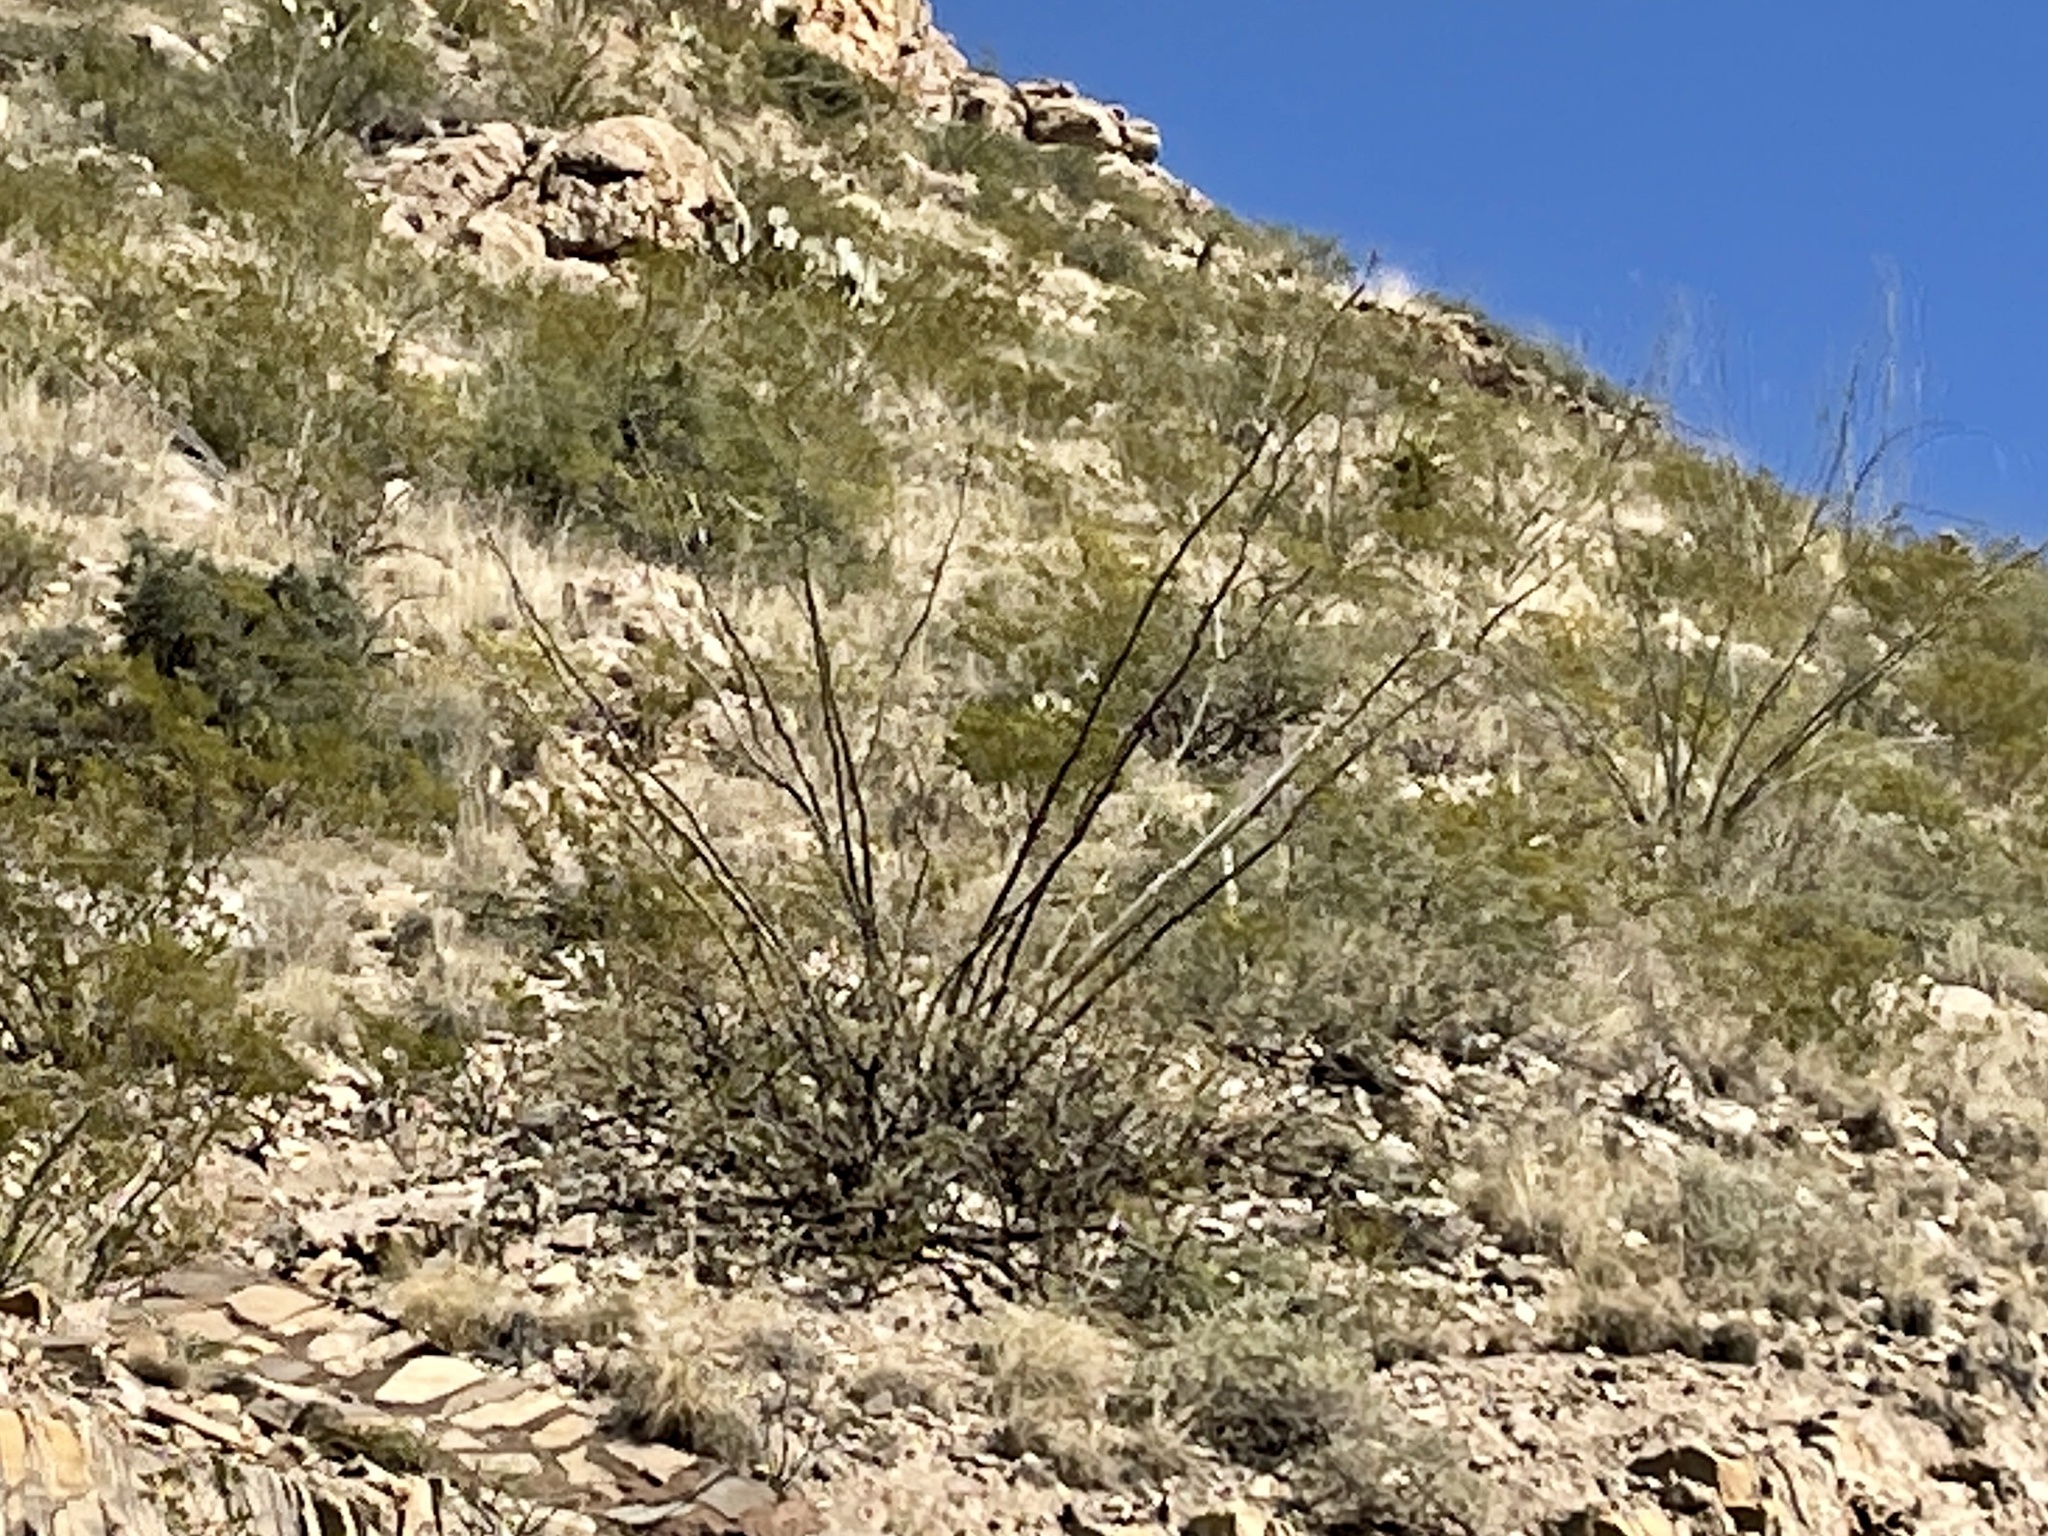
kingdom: Plantae
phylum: Tracheophyta
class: Magnoliopsida
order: Ericales
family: Fouquieriaceae
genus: Fouquieria
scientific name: Fouquieria splendens
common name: Vine-cactus
